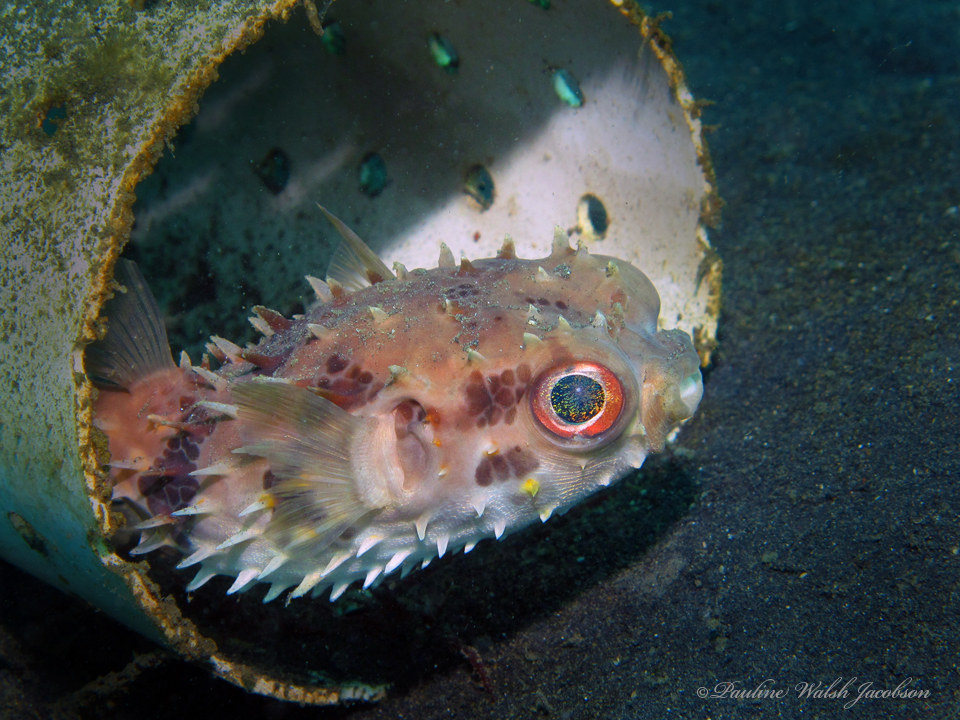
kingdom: Animalia
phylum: Chordata
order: Tetraodontiformes
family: Diodontidae
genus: Cyclichthys
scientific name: Cyclichthys orbicularis
